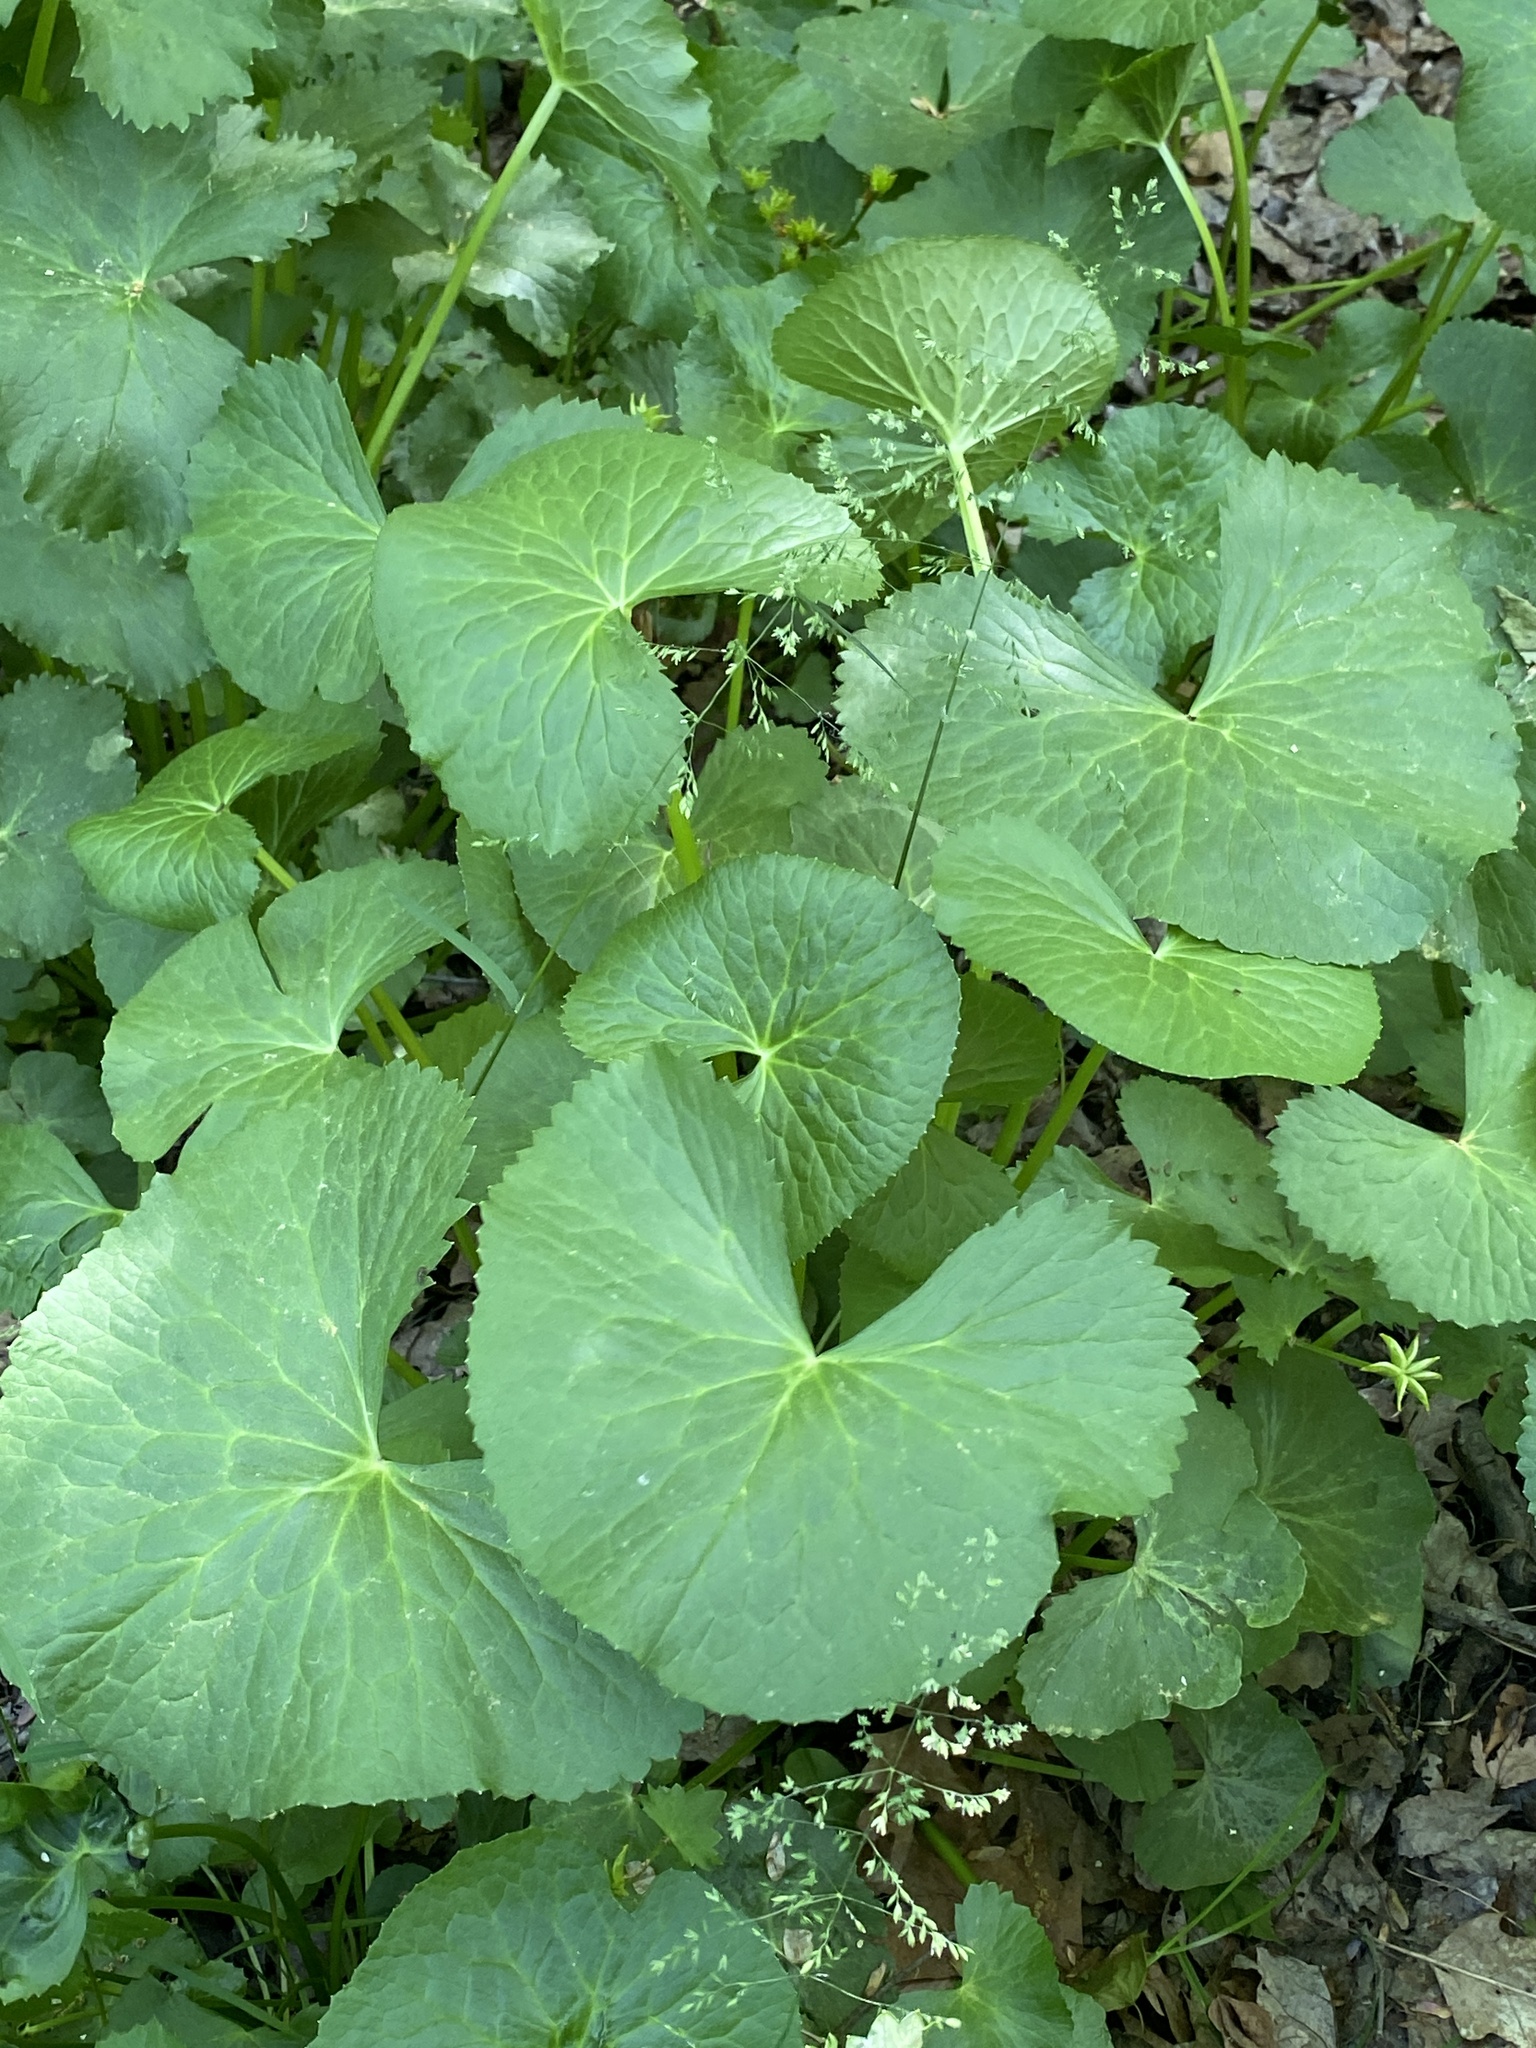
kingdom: Plantae
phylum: Tracheophyta
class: Magnoliopsida
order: Ranunculales
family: Ranunculaceae
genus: Caltha
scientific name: Caltha palustris
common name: Marsh marigold
